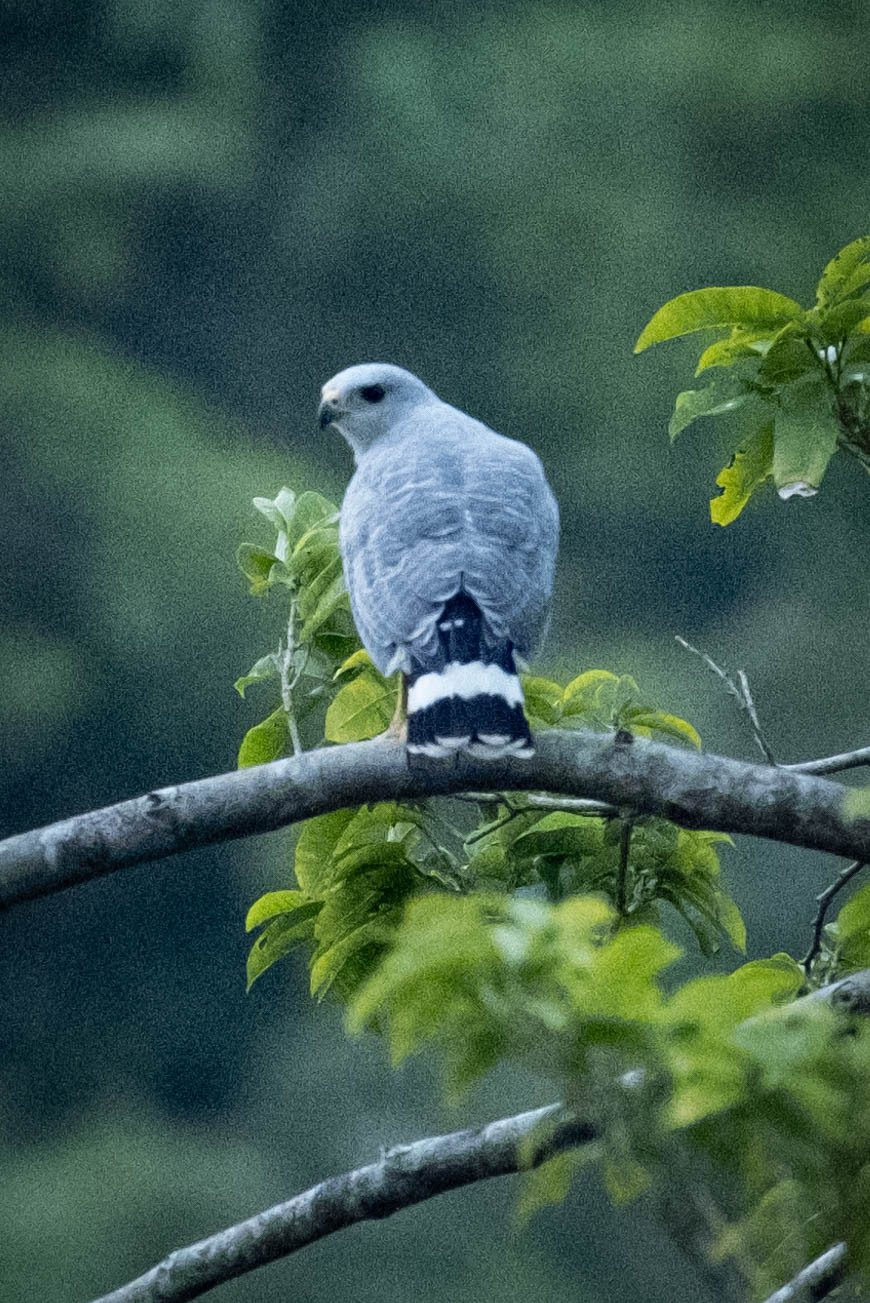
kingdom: Animalia
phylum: Chordata
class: Aves
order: Accipitriformes
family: Accipitridae
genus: Buteo
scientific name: Buteo nitidus
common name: Grey-lined hawk
